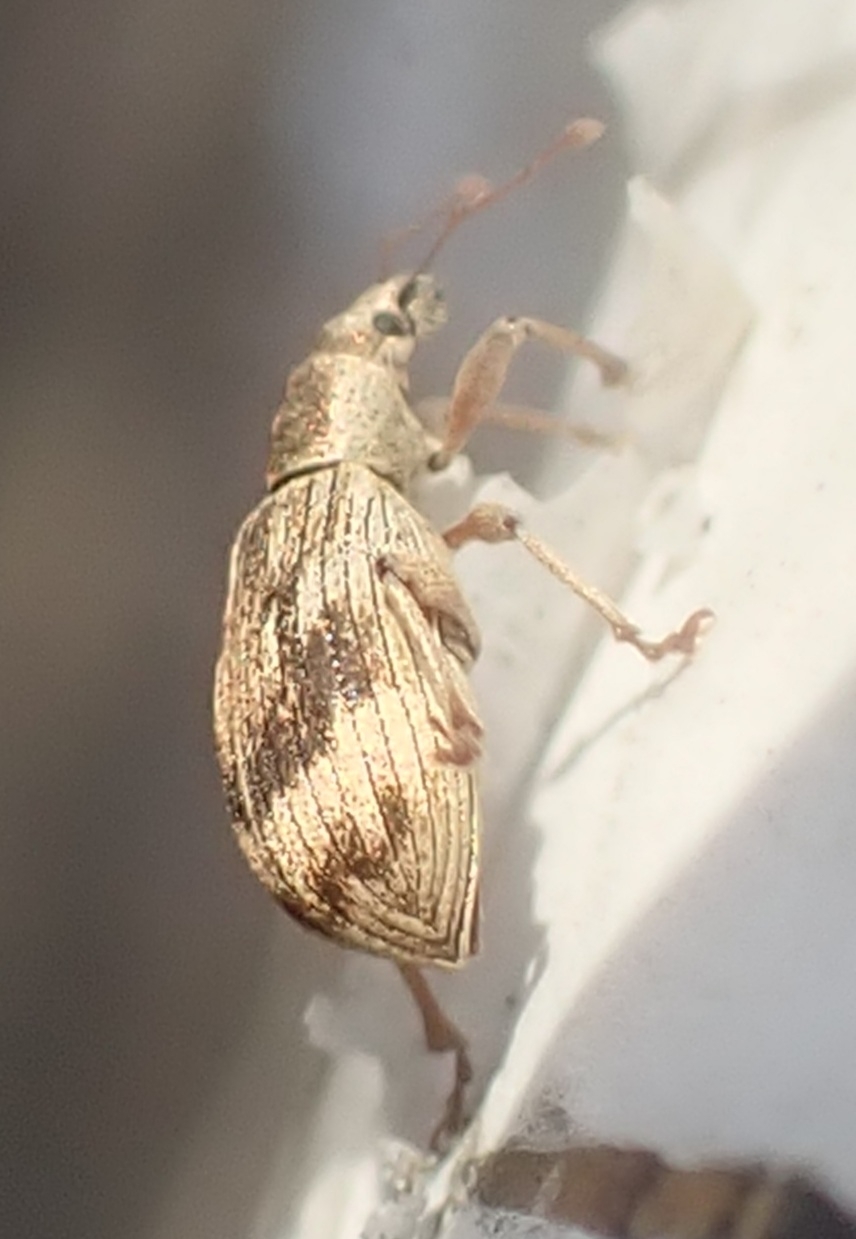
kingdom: Animalia
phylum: Arthropoda
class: Insecta
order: Coleoptera
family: Curculionidae
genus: Polydrusus
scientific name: Polydrusus tereticollis
